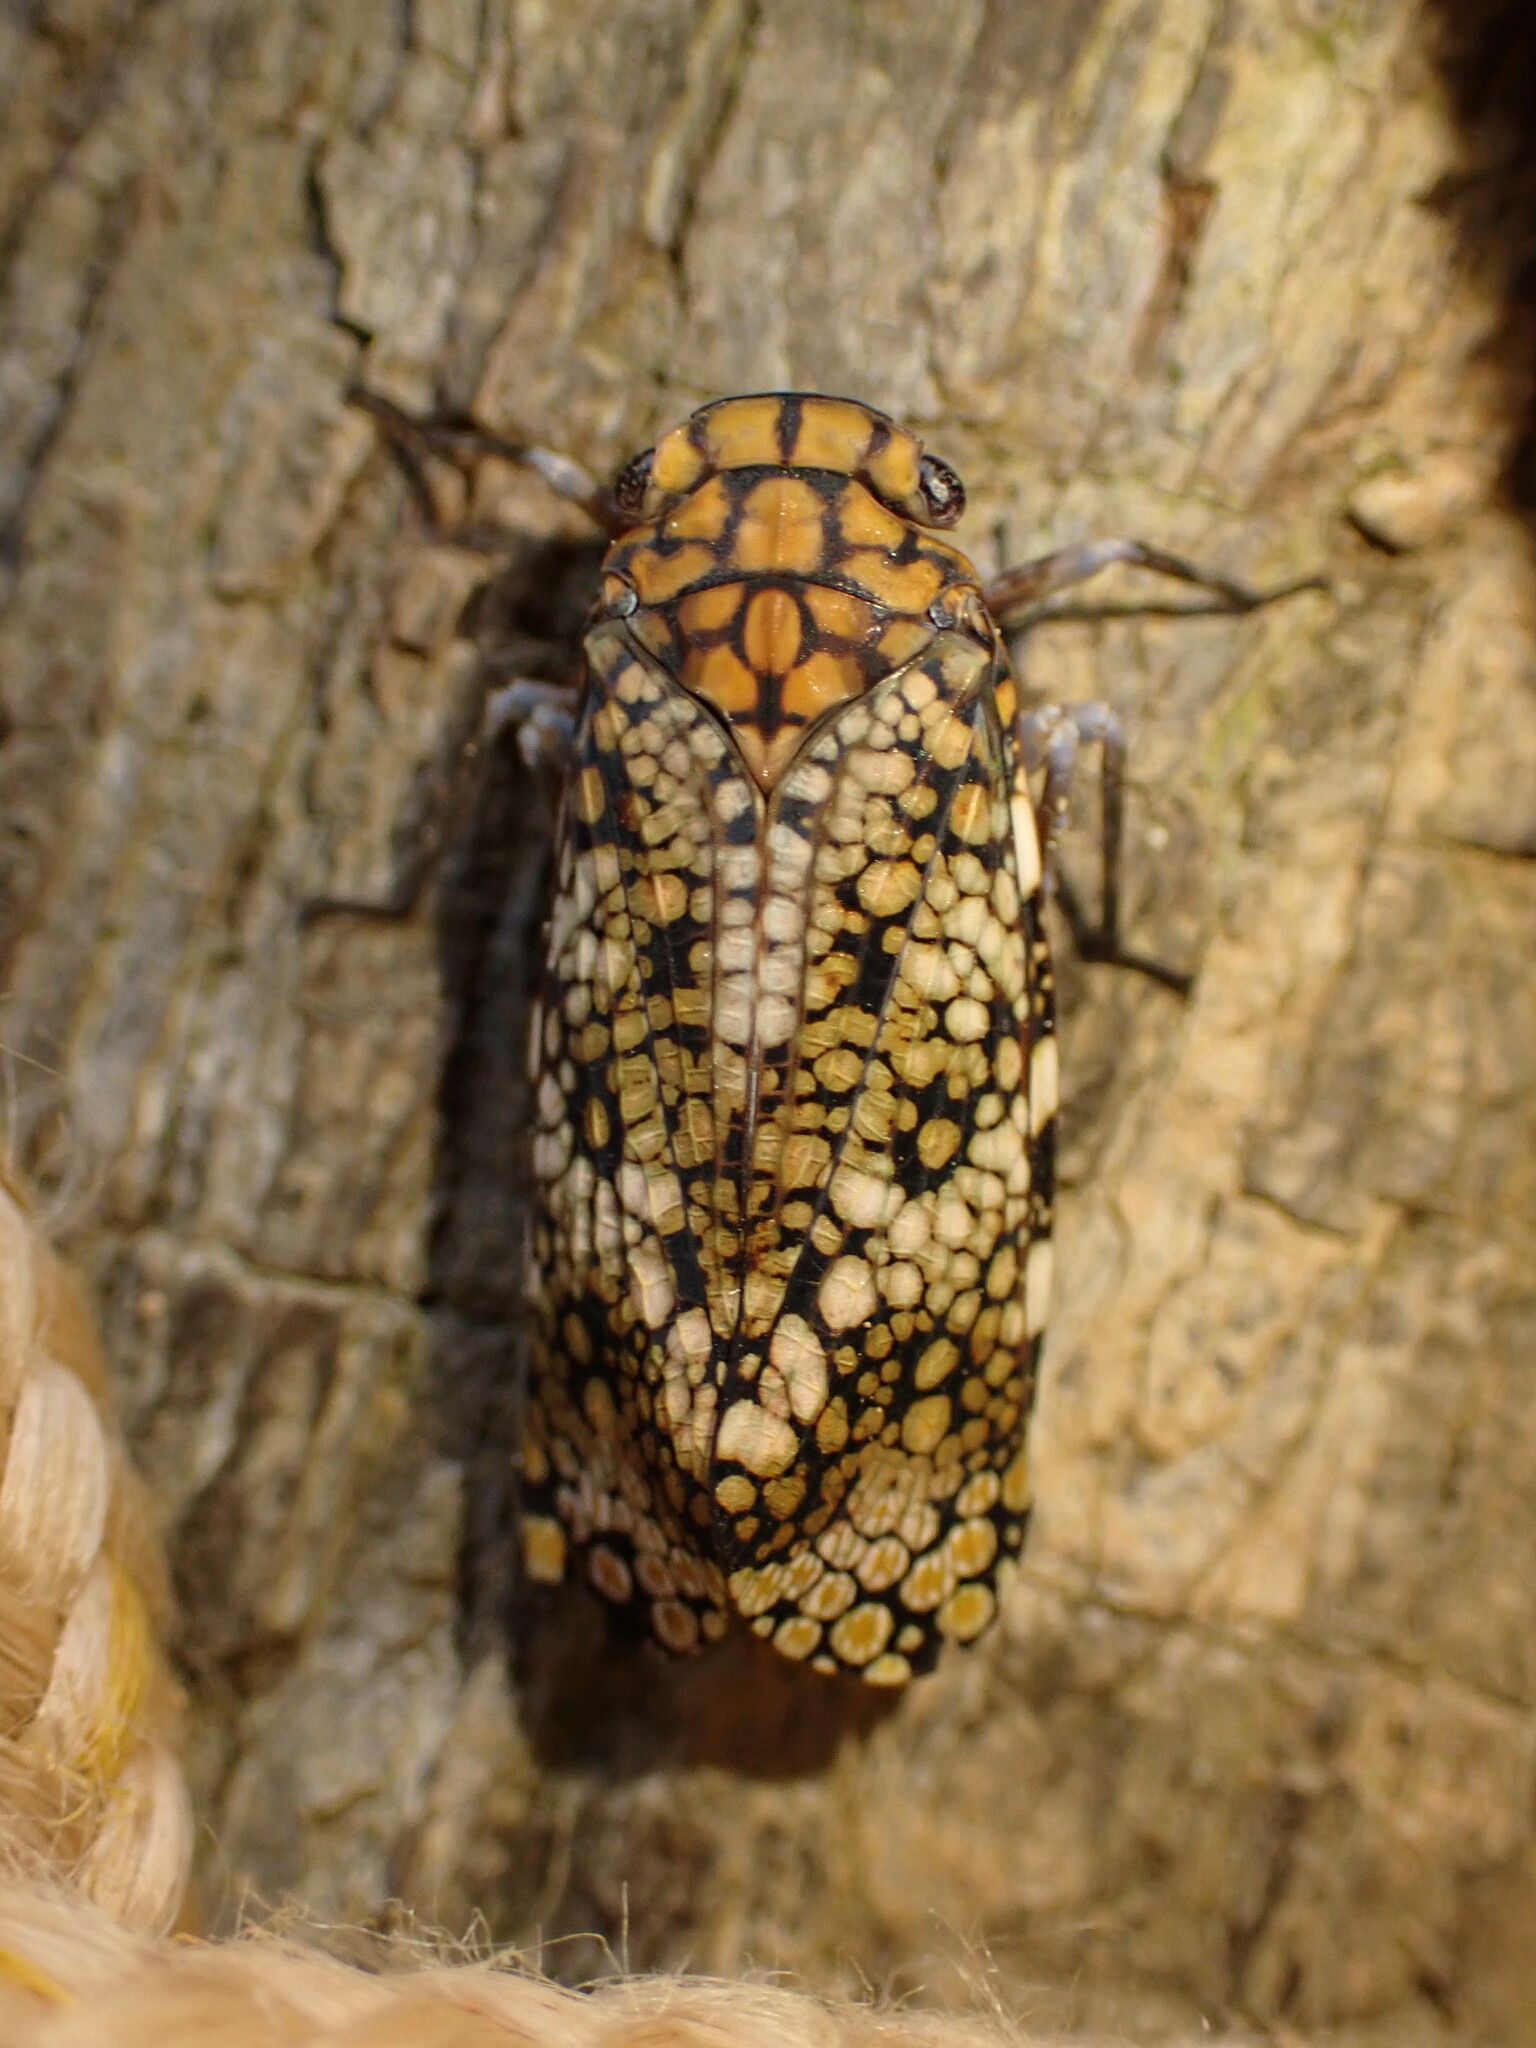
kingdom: Animalia
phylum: Arthropoda
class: Insecta
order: Hemiptera
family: Fulgoridae
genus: Acmonia
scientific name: Acmonia spilota
